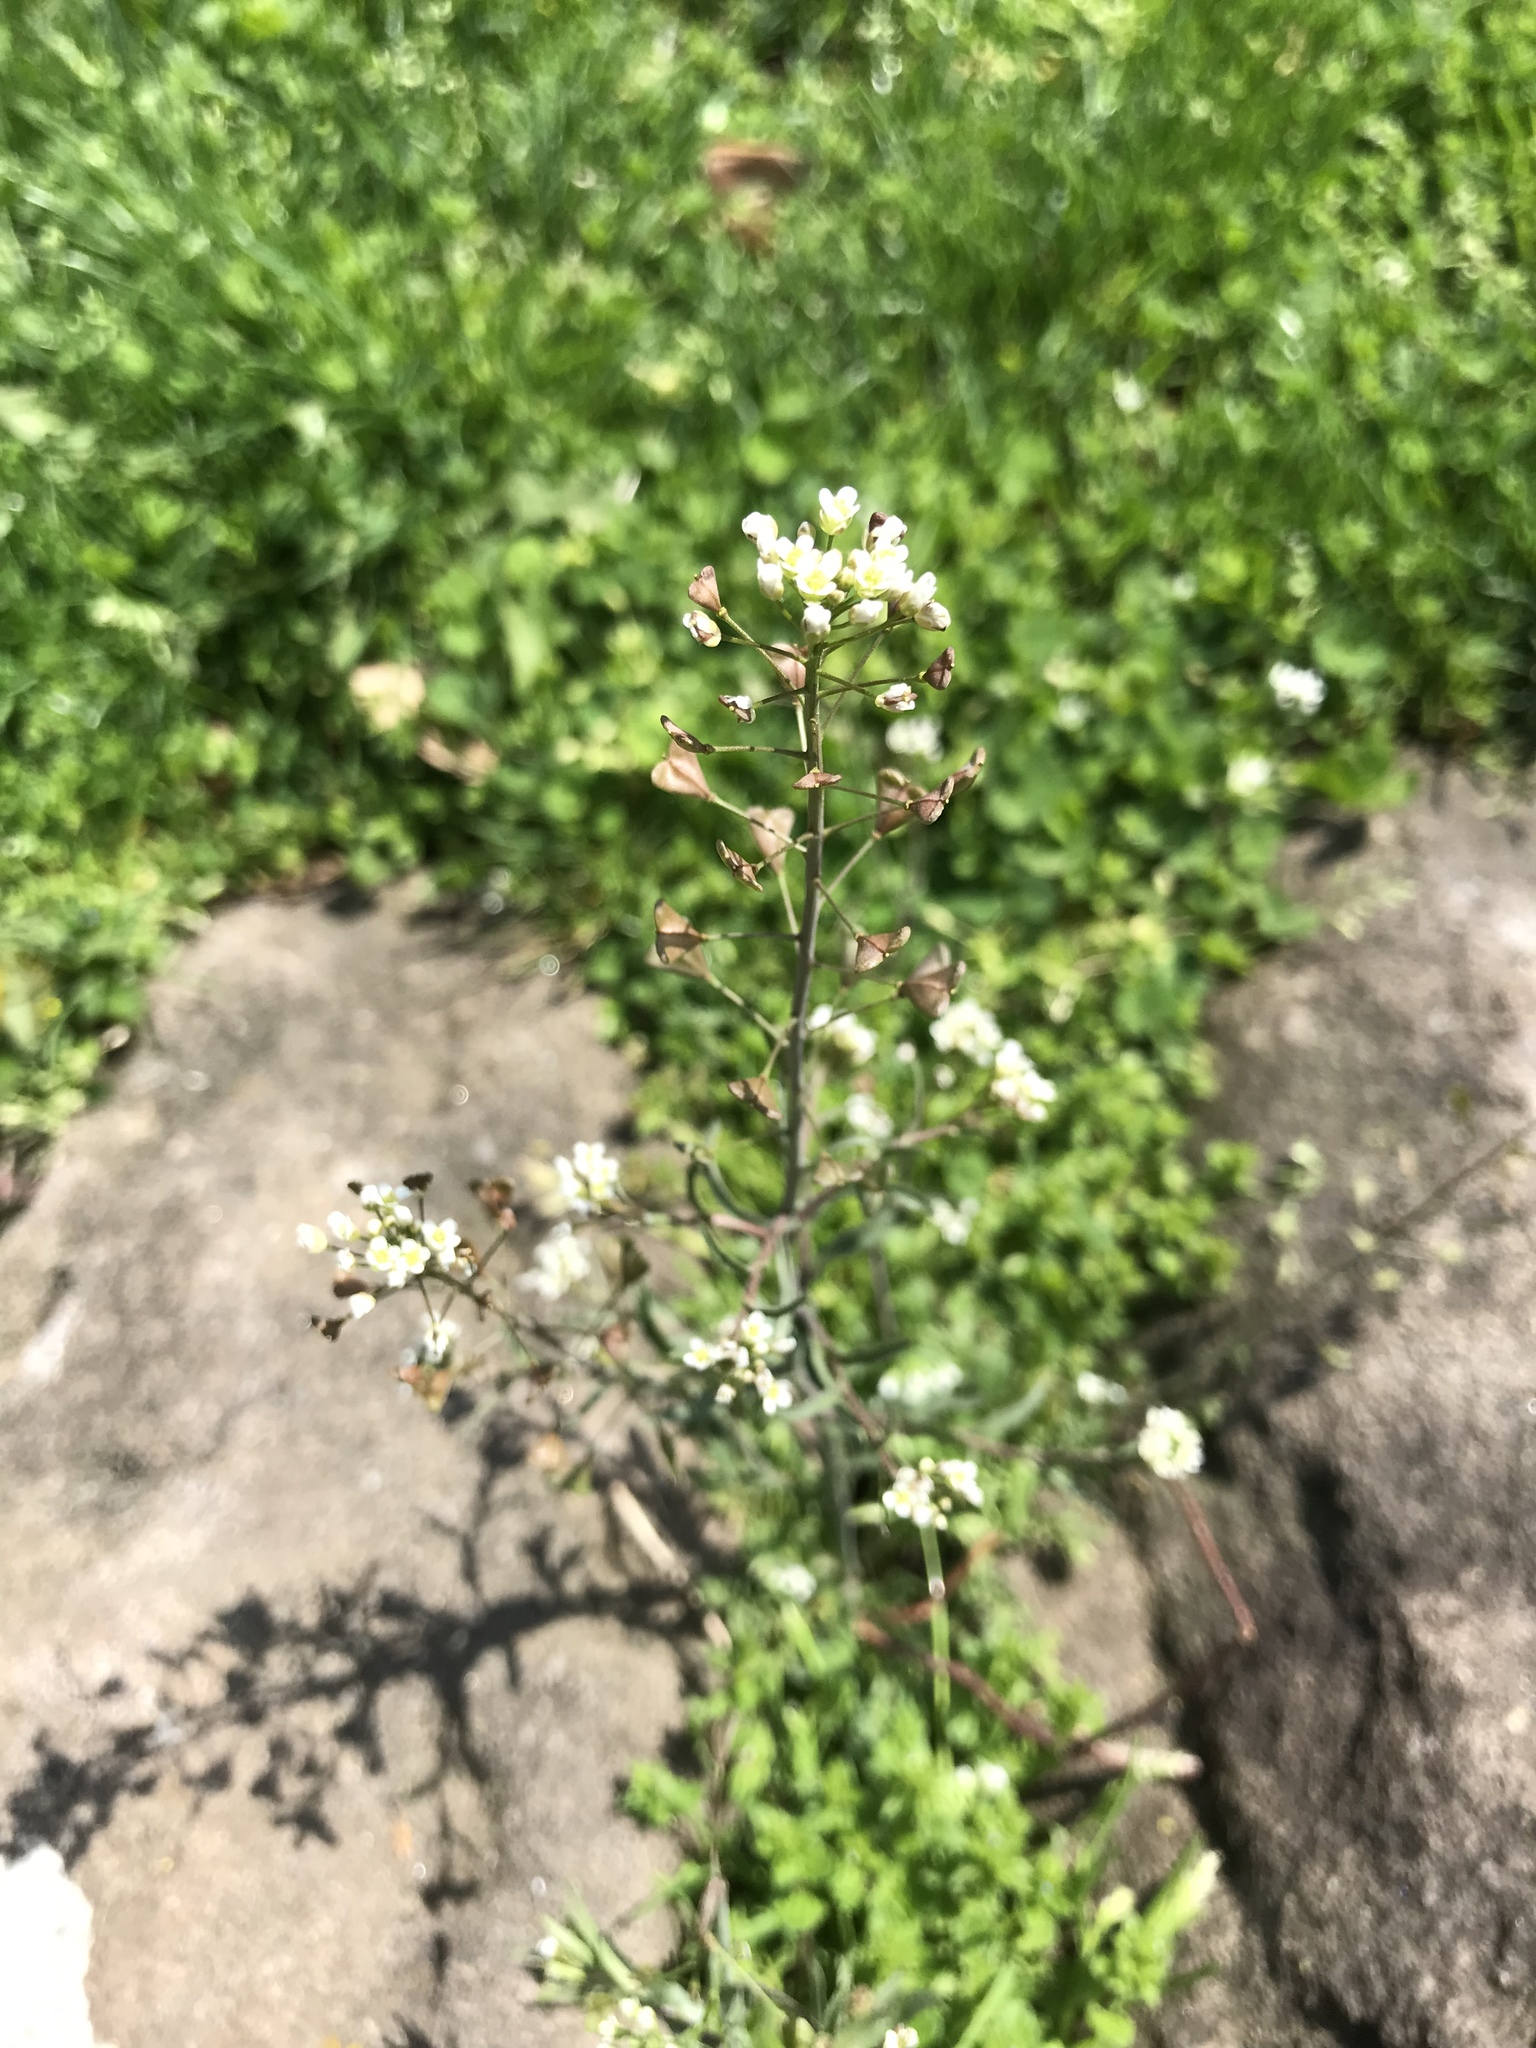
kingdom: Plantae
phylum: Tracheophyta
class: Magnoliopsida
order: Brassicales
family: Brassicaceae
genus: Capsella
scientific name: Capsella bursa-pastoris
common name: Shepherd's purse
